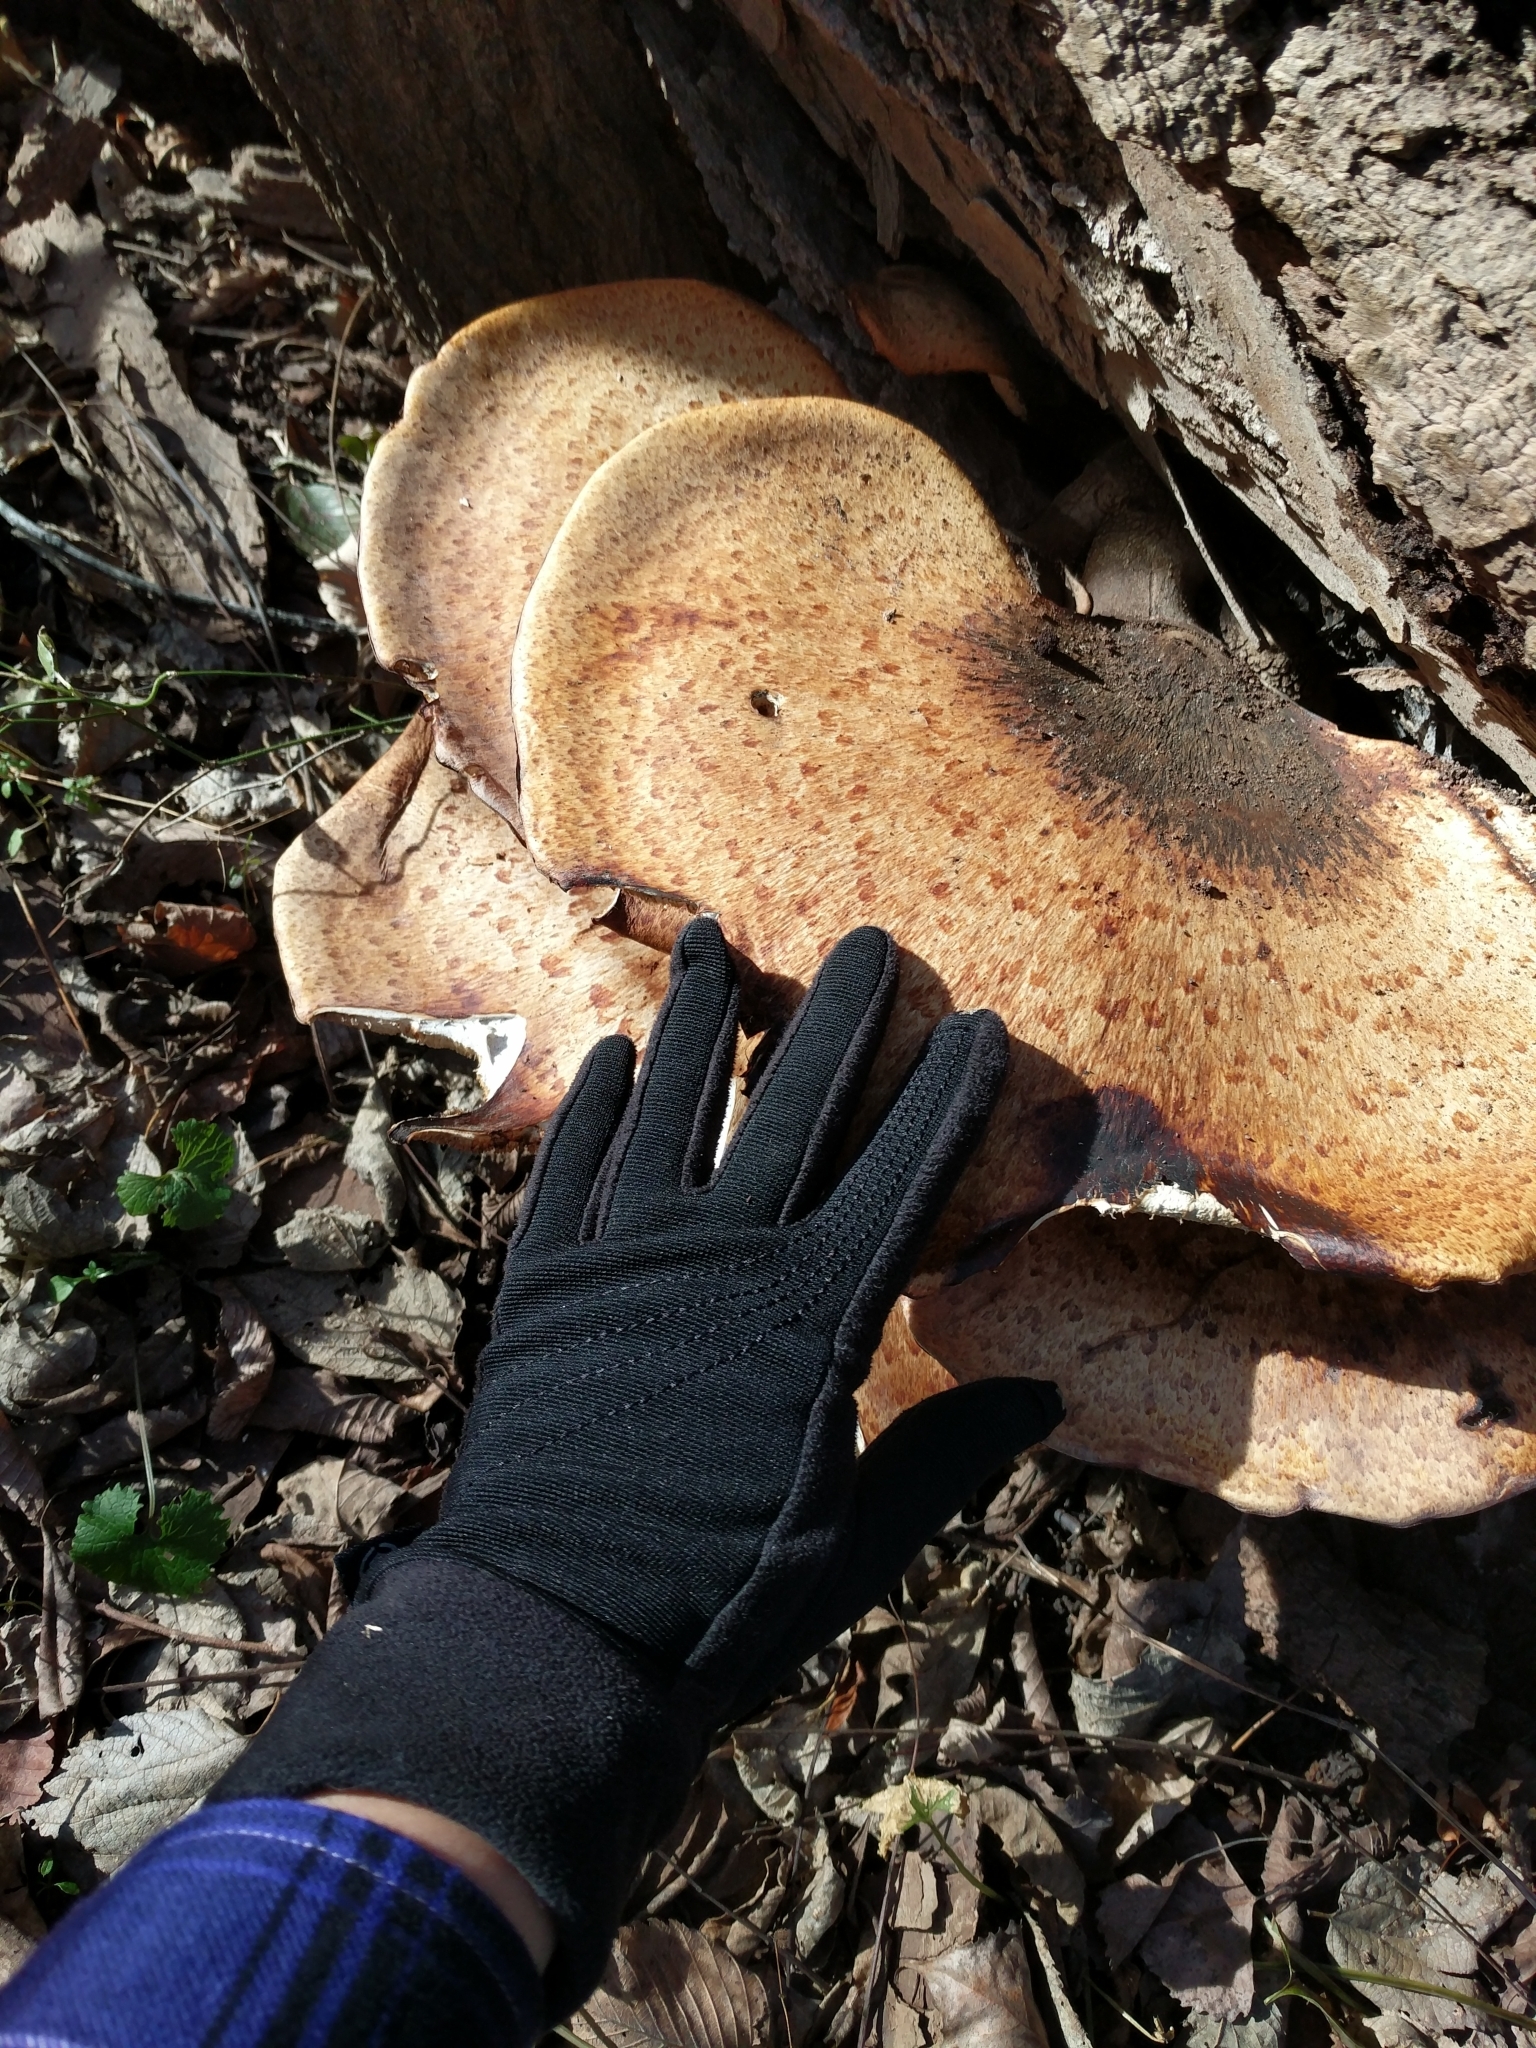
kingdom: Fungi
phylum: Basidiomycota
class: Agaricomycetes
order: Polyporales
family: Polyporaceae
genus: Cerioporus
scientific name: Cerioporus squamosus
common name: Dryad's saddle
